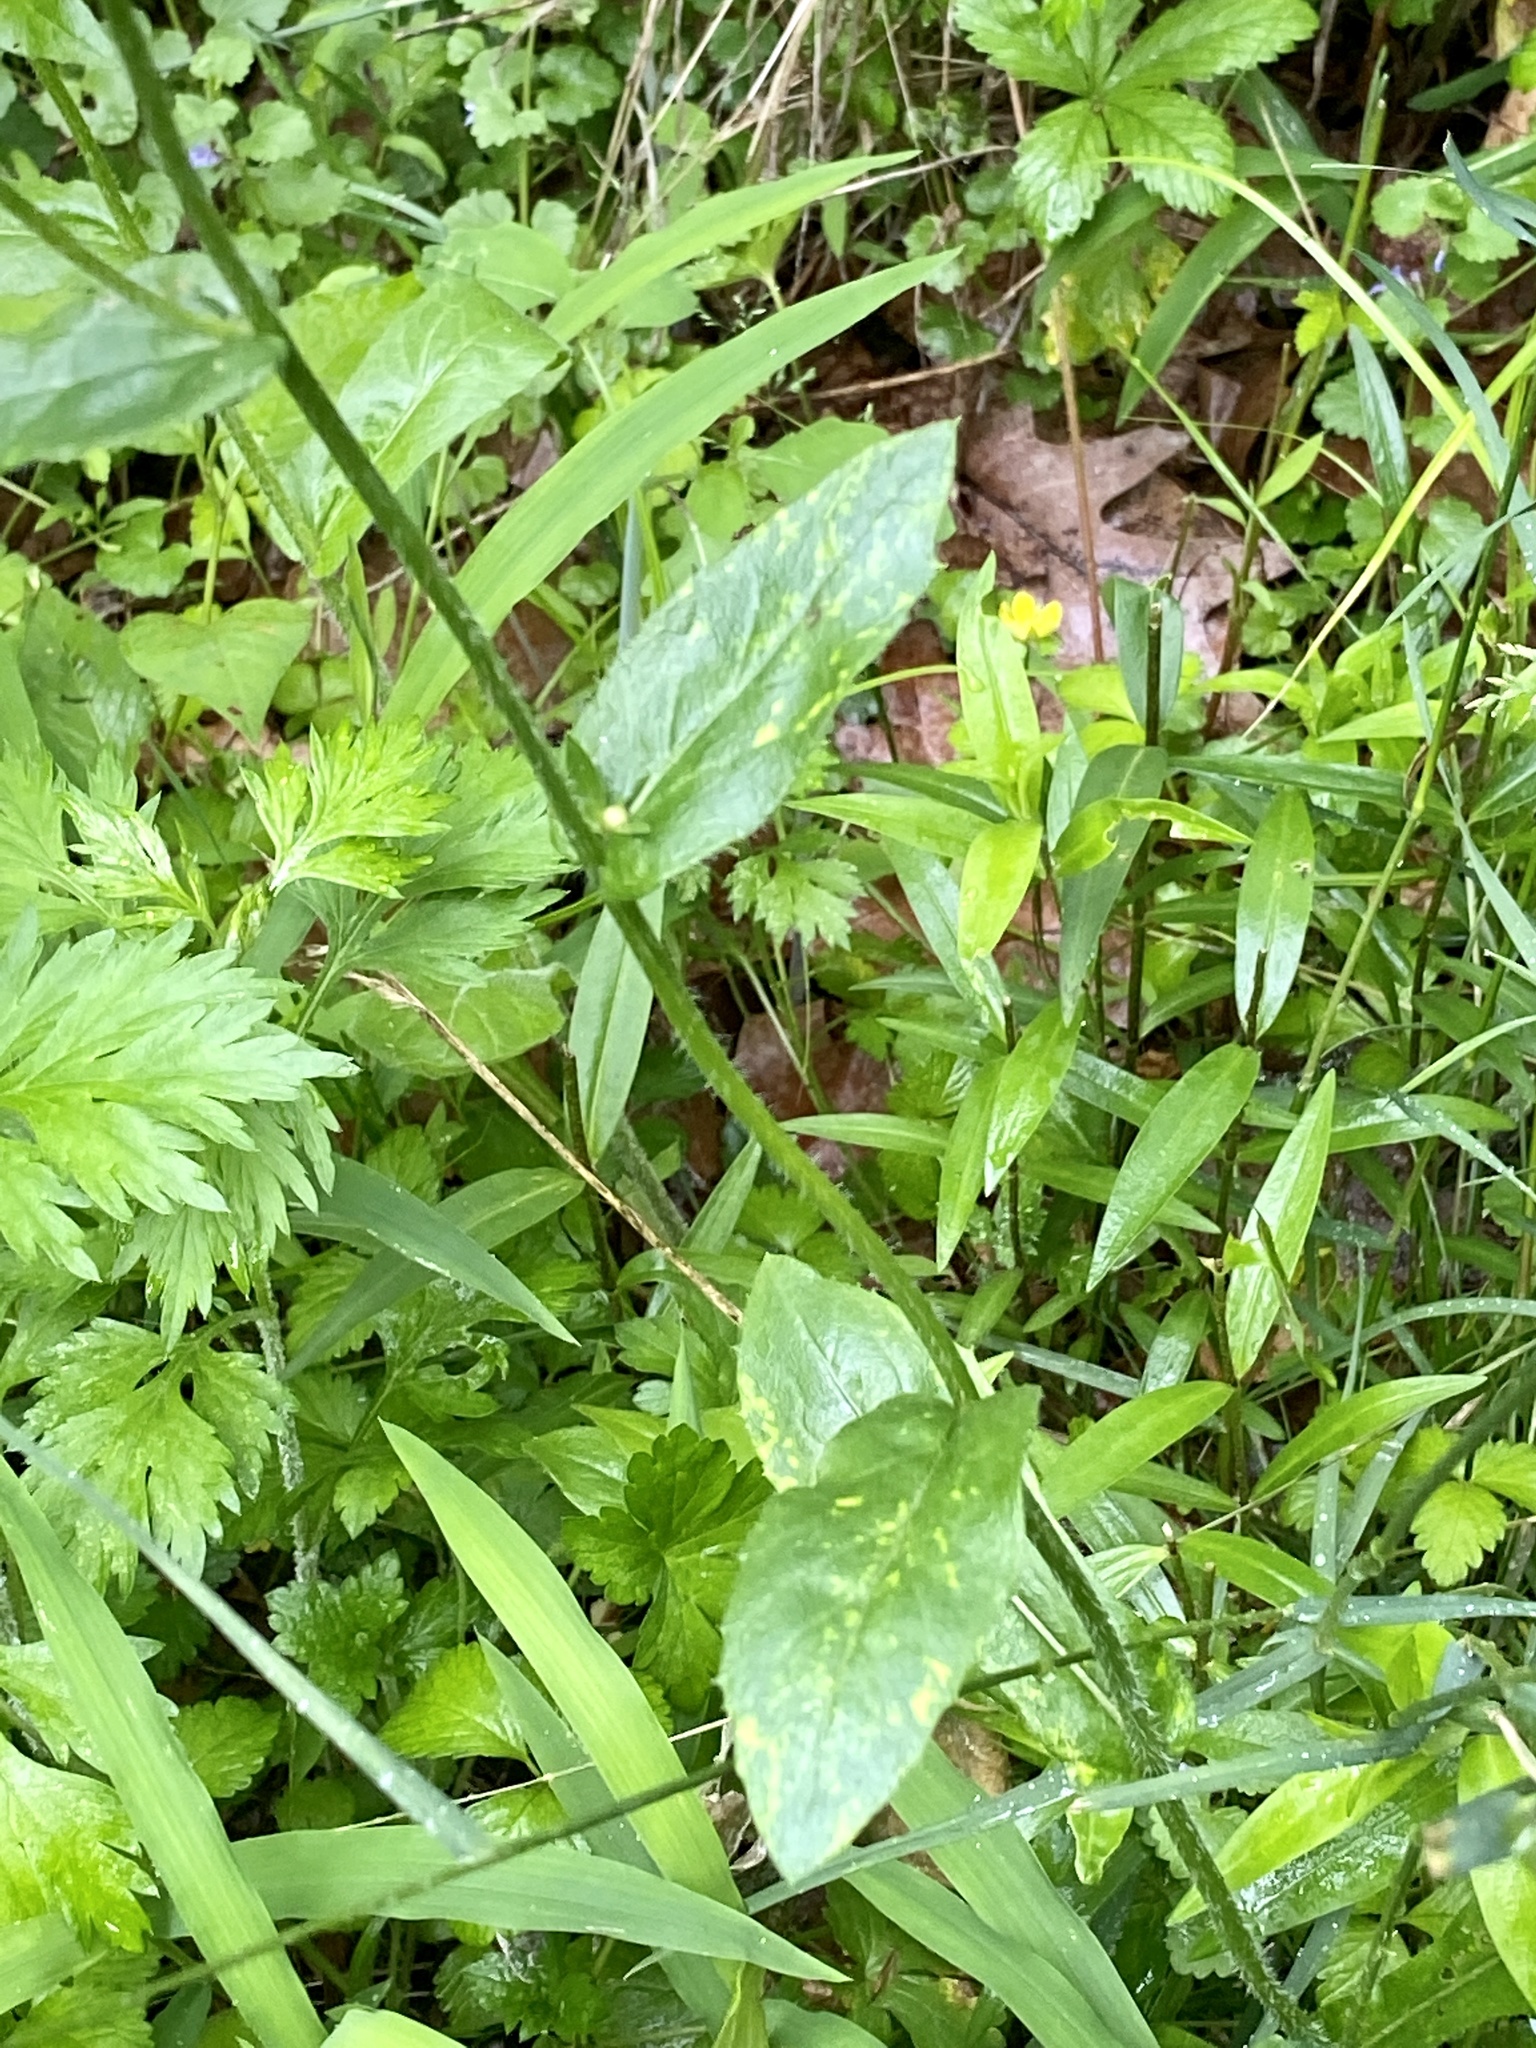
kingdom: Plantae
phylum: Tracheophyta
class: Magnoliopsida
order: Asterales
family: Asteraceae
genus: Erigeron
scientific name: Erigeron philadelphicus
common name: Robin's-plantain
